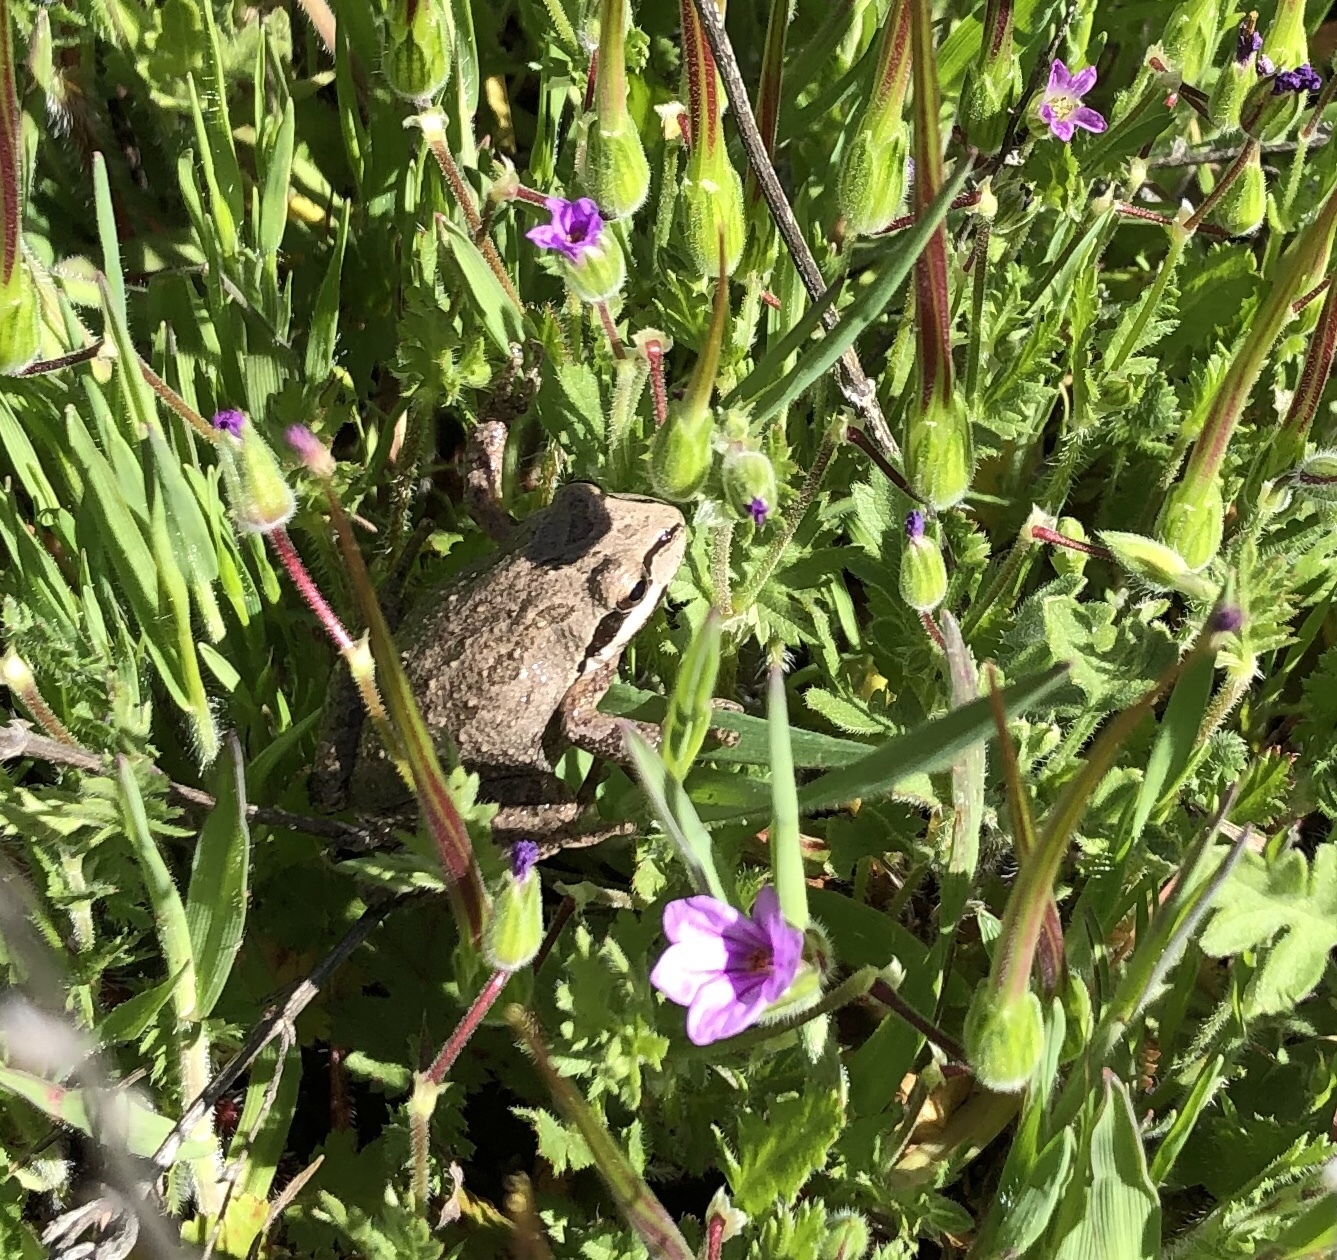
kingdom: Animalia
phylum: Chordata
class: Amphibia
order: Anura
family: Hylidae
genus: Pseudacris
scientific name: Pseudacris regilla
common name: Pacific chorus frog
